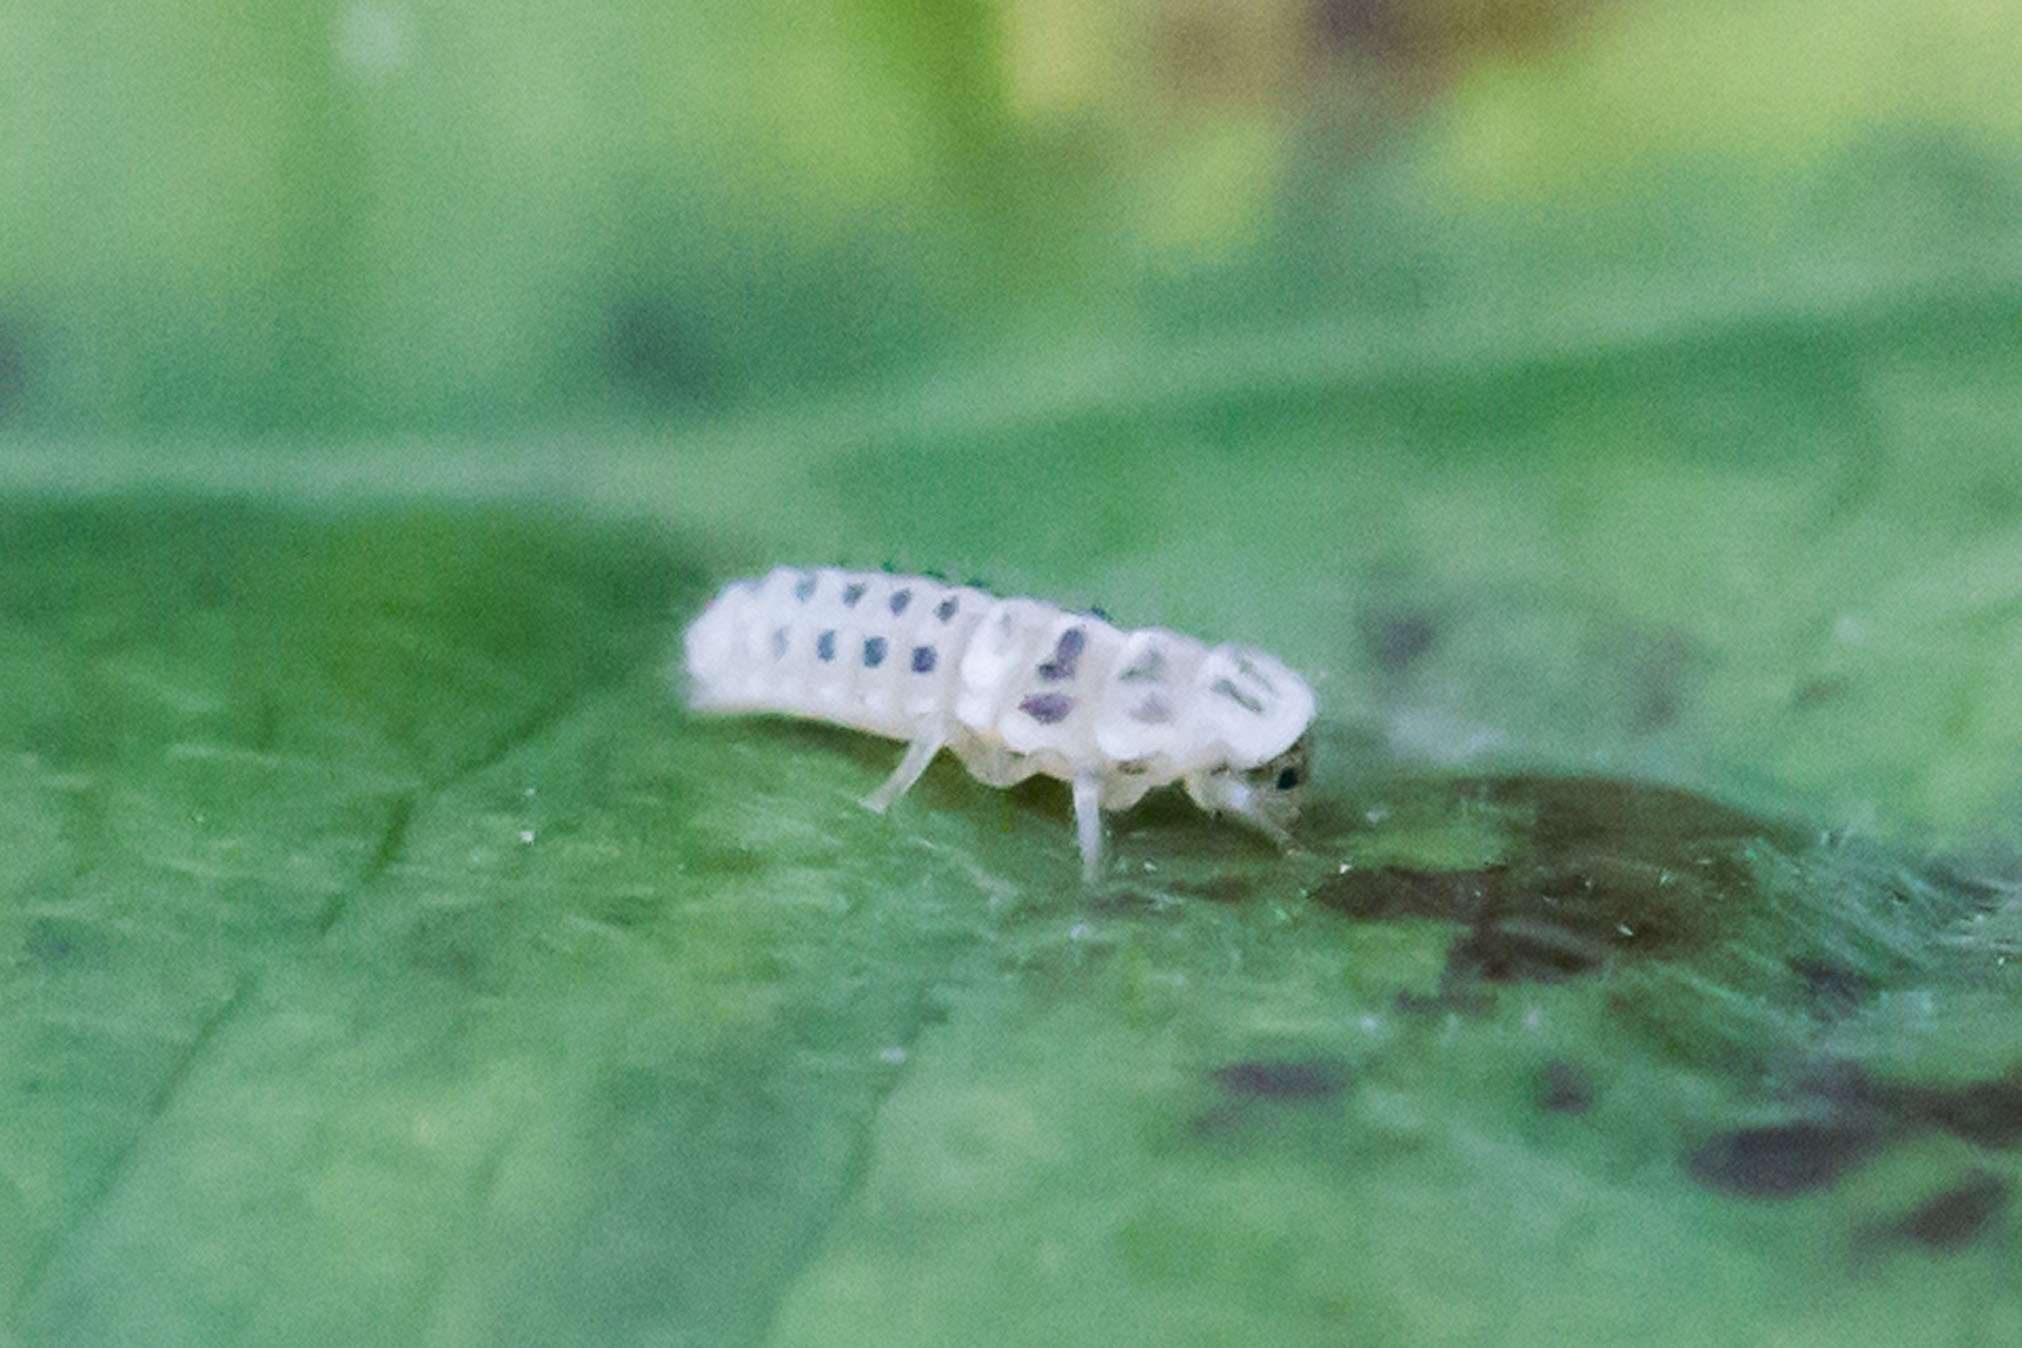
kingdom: Animalia
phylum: Arthropoda
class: Insecta
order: Coleoptera
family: Coccinellidae
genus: Psyllobora
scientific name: Psyllobora vigintimaculata
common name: Ladybird beetle
